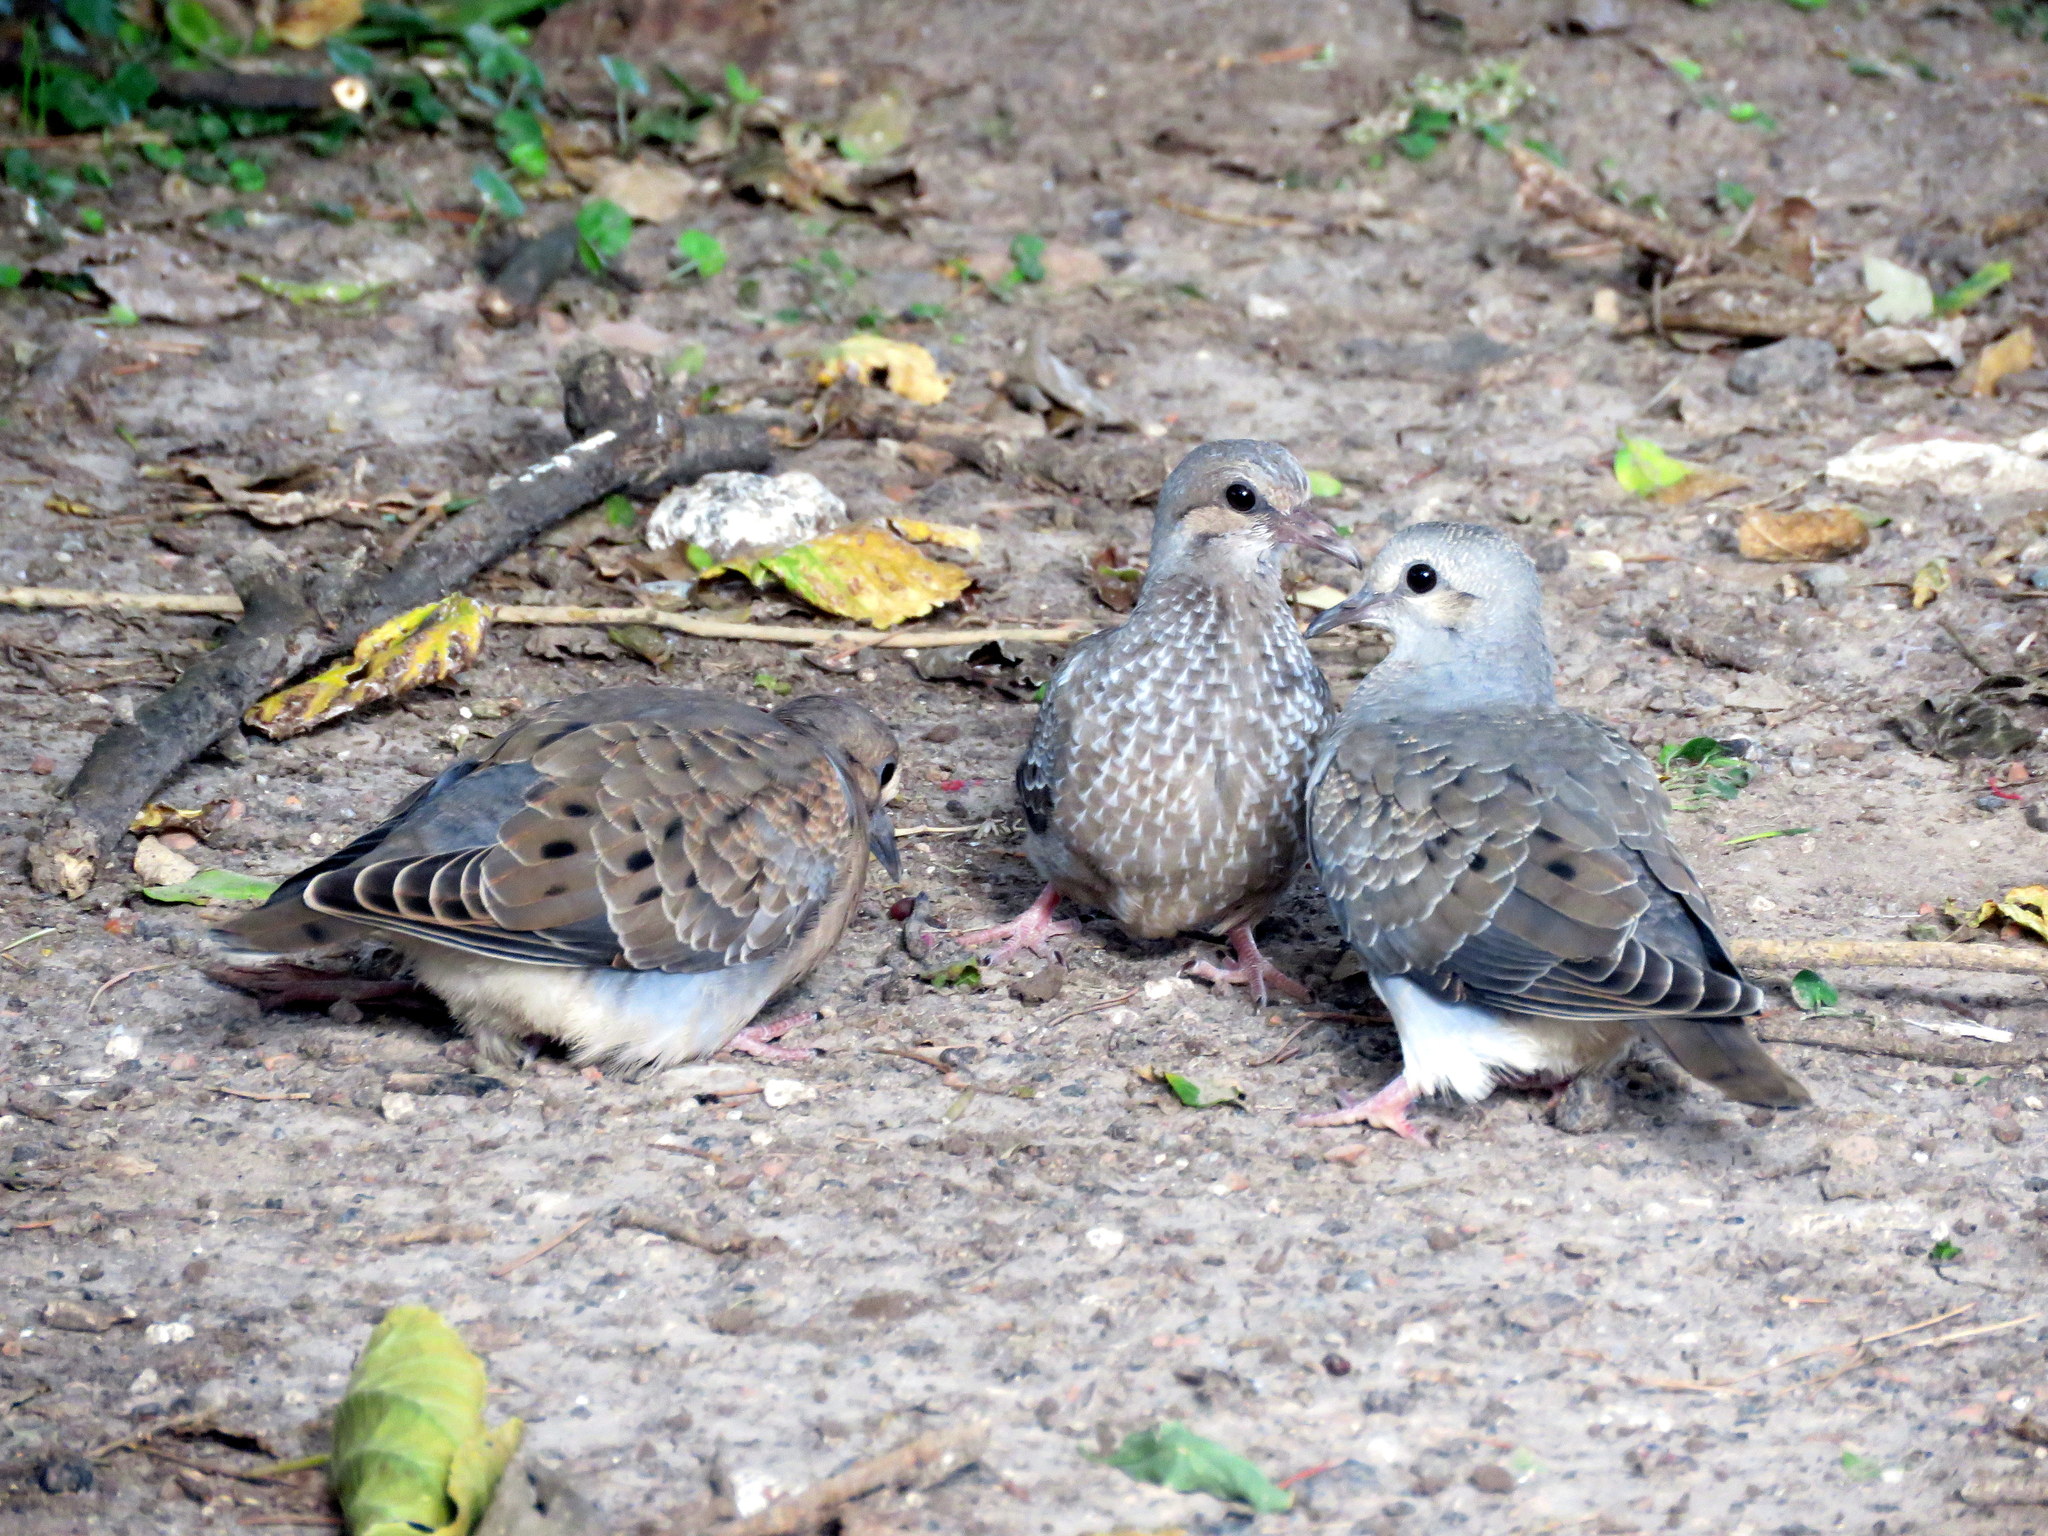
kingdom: Animalia
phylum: Chordata
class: Aves
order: Columbiformes
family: Columbidae
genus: Zenaida
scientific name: Zenaida auriculata
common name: Eared dove
